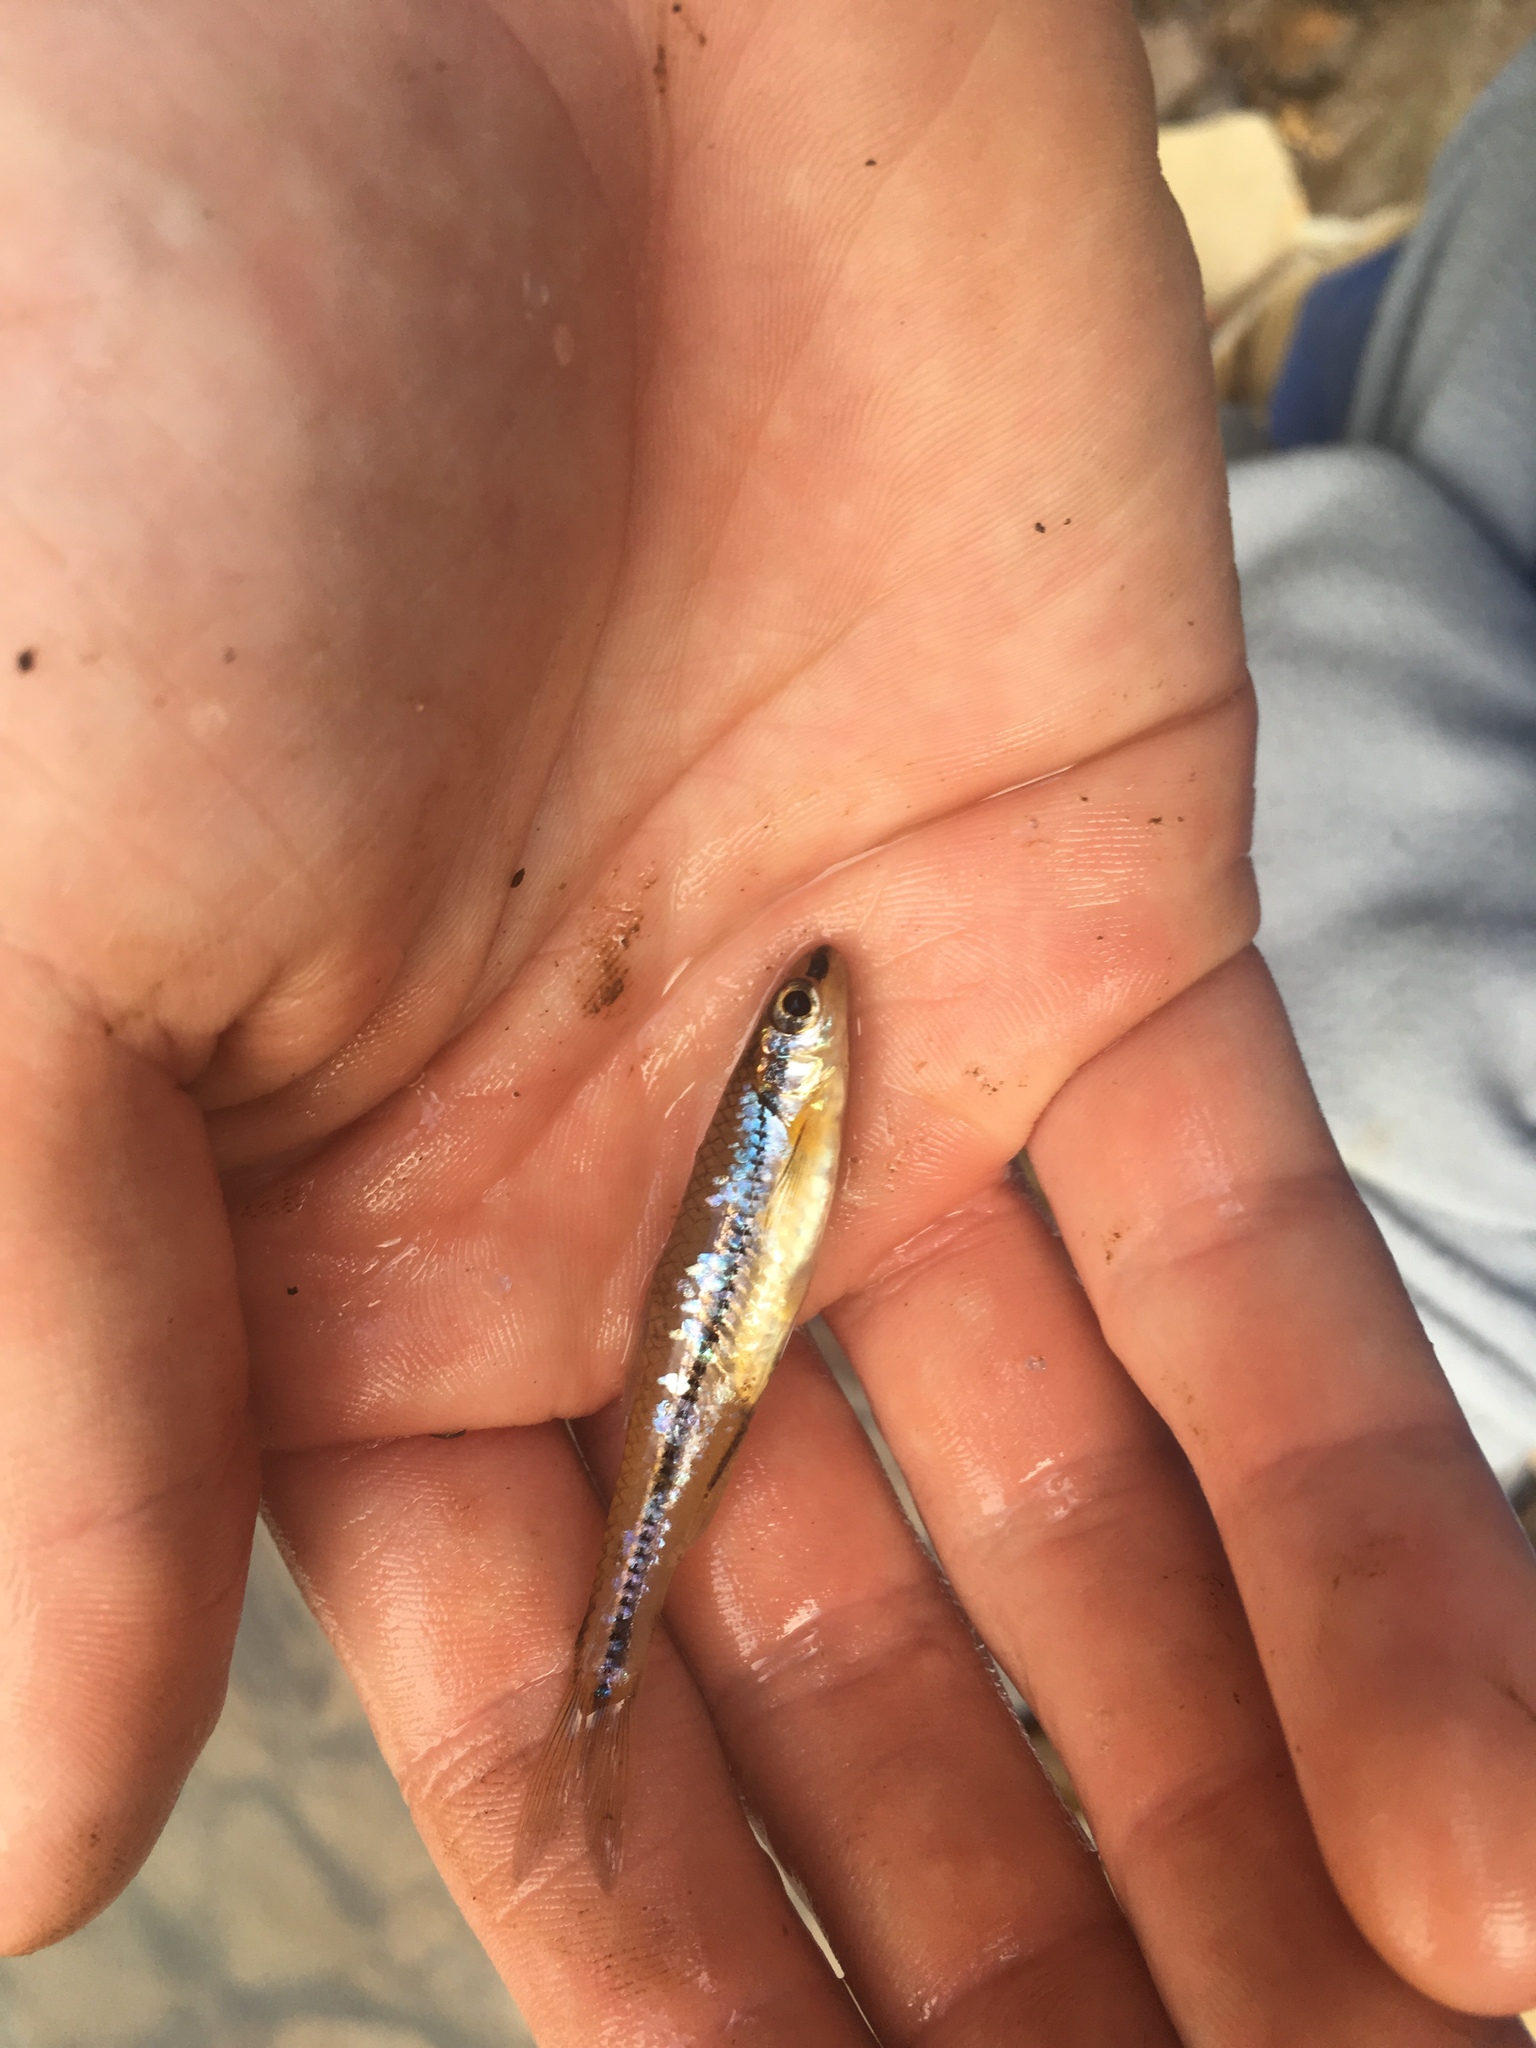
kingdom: Animalia
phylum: Chordata
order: Cypriniformes
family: Cyprinidae
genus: Notropis
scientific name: Notropis
